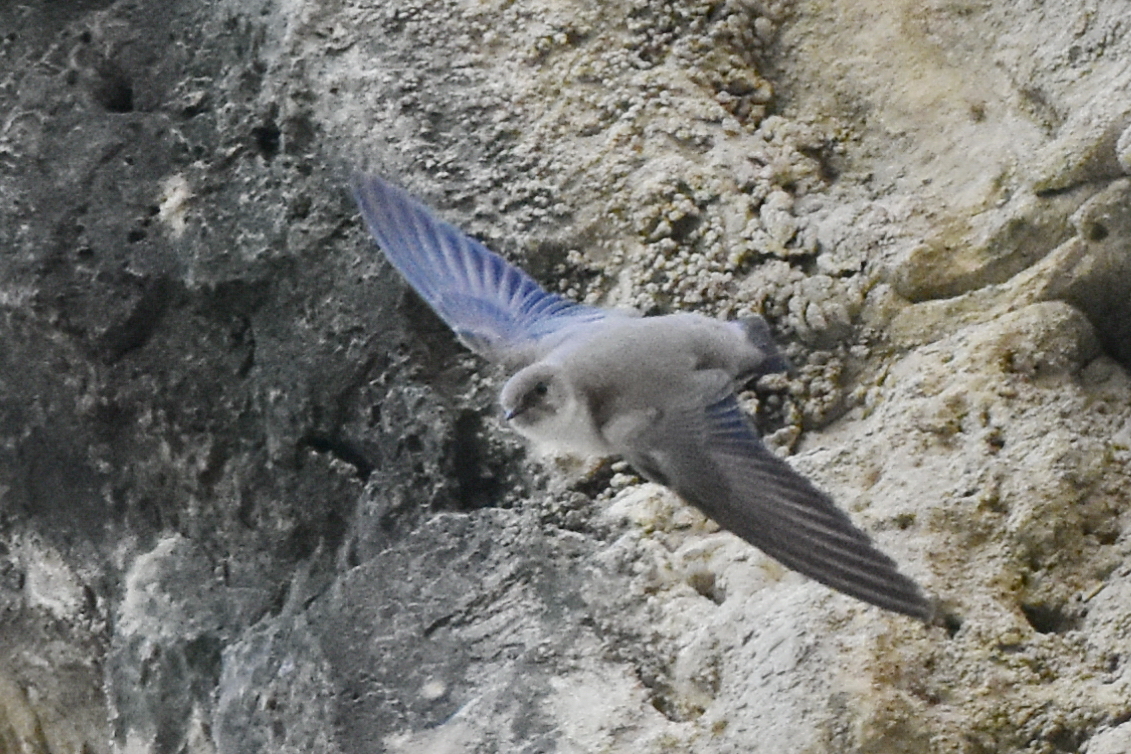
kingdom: Animalia
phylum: Chordata
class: Aves
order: Passeriformes
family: Hirundinidae
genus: Ptyonoprogne
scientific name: Ptyonoprogne rupestris
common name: Eurasian crag martin
